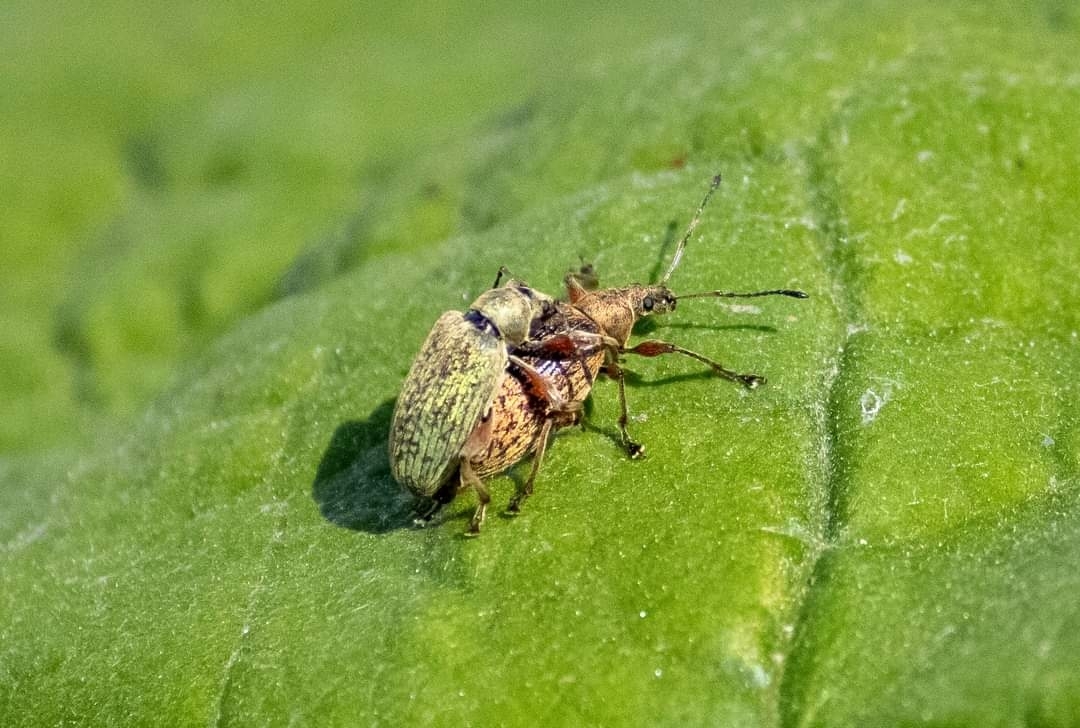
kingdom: Animalia
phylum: Arthropoda
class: Insecta
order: Coleoptera
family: Curculionidae
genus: Phyllobius
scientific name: Phyllobius glaucus
